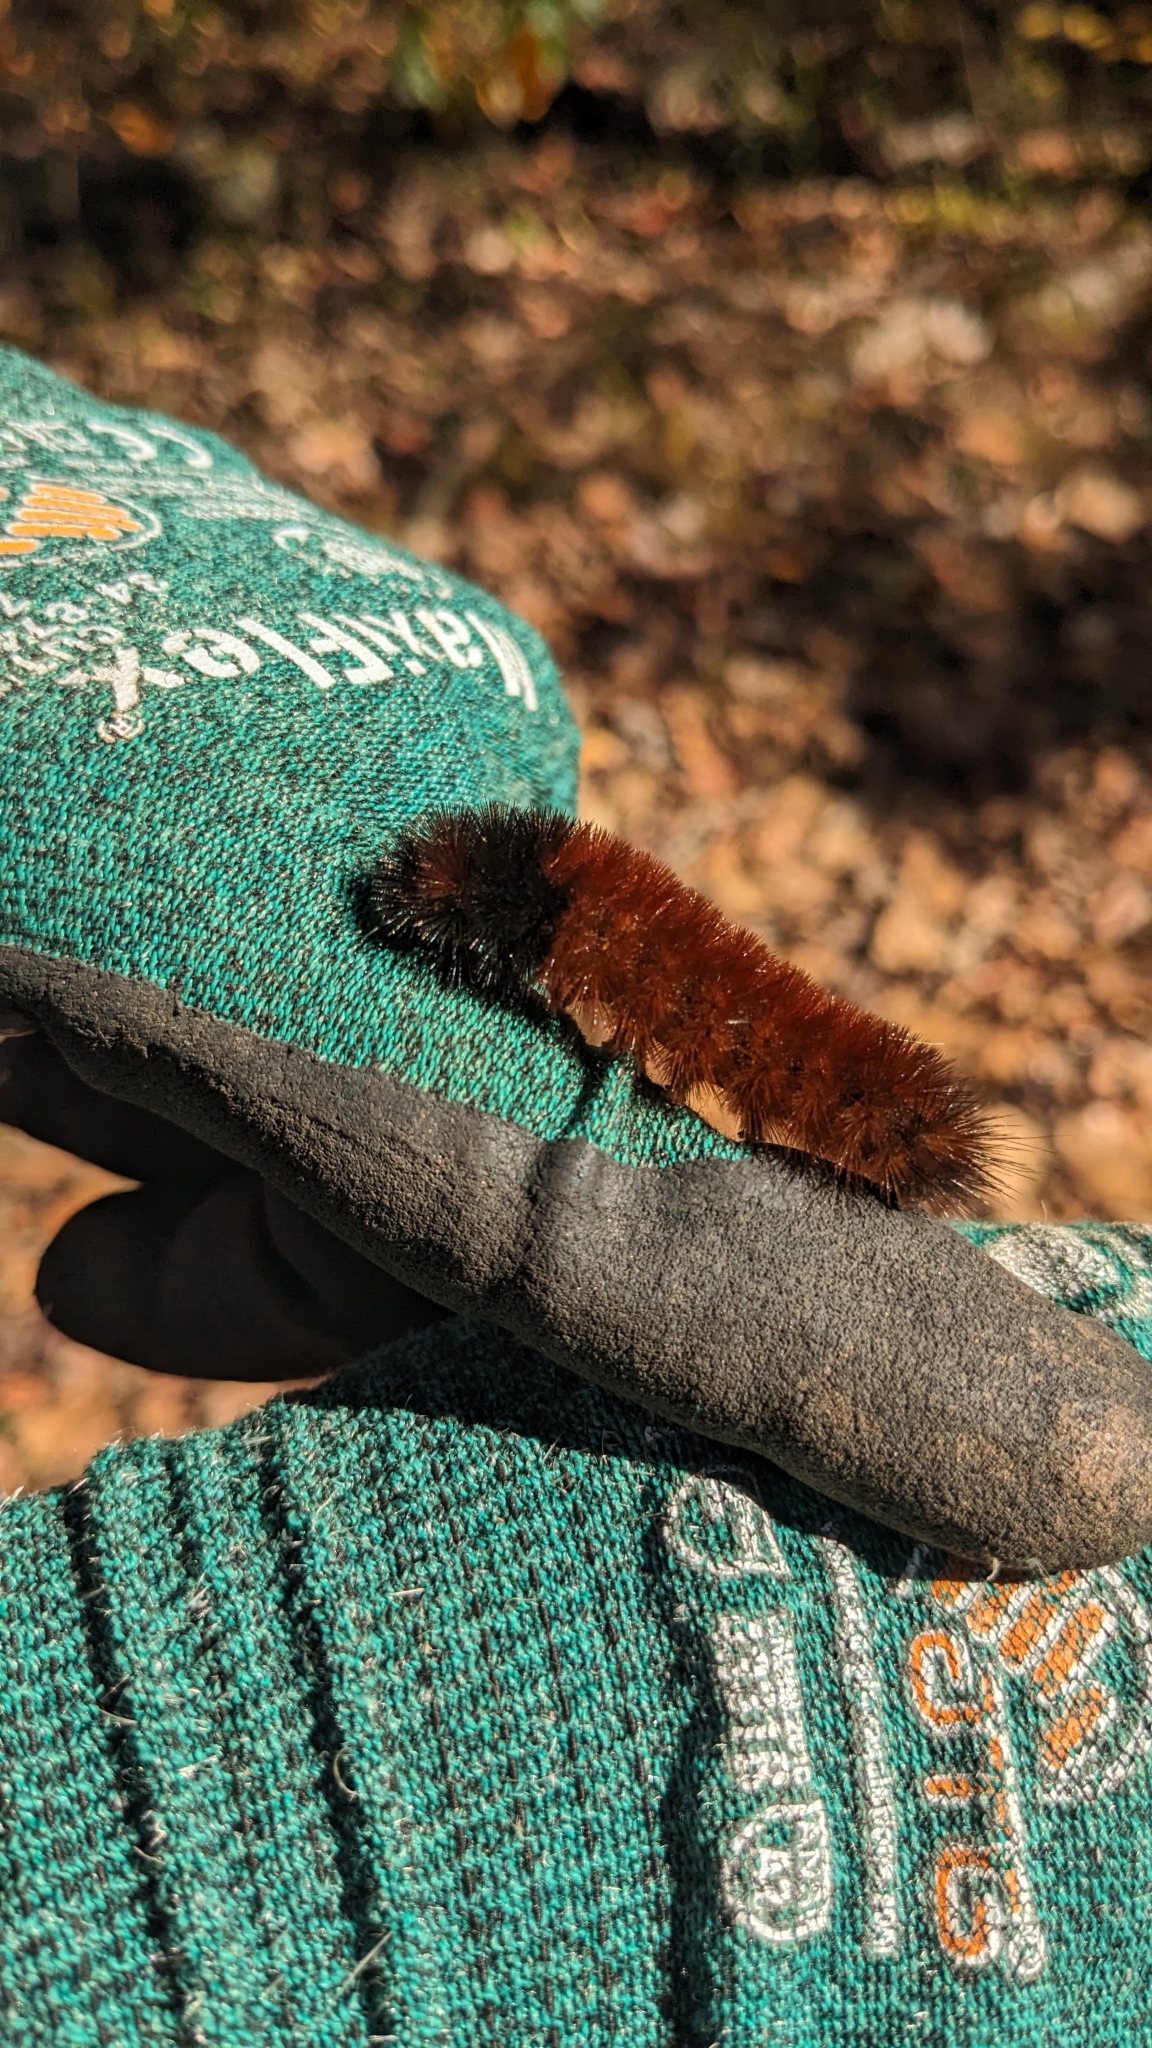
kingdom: Animalia
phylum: Arthropoda
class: Insecta
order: Lepidoptera
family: Erebidae
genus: Pyrrharctia
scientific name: Pyrrharctia isabella
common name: Isabella tiger moth
